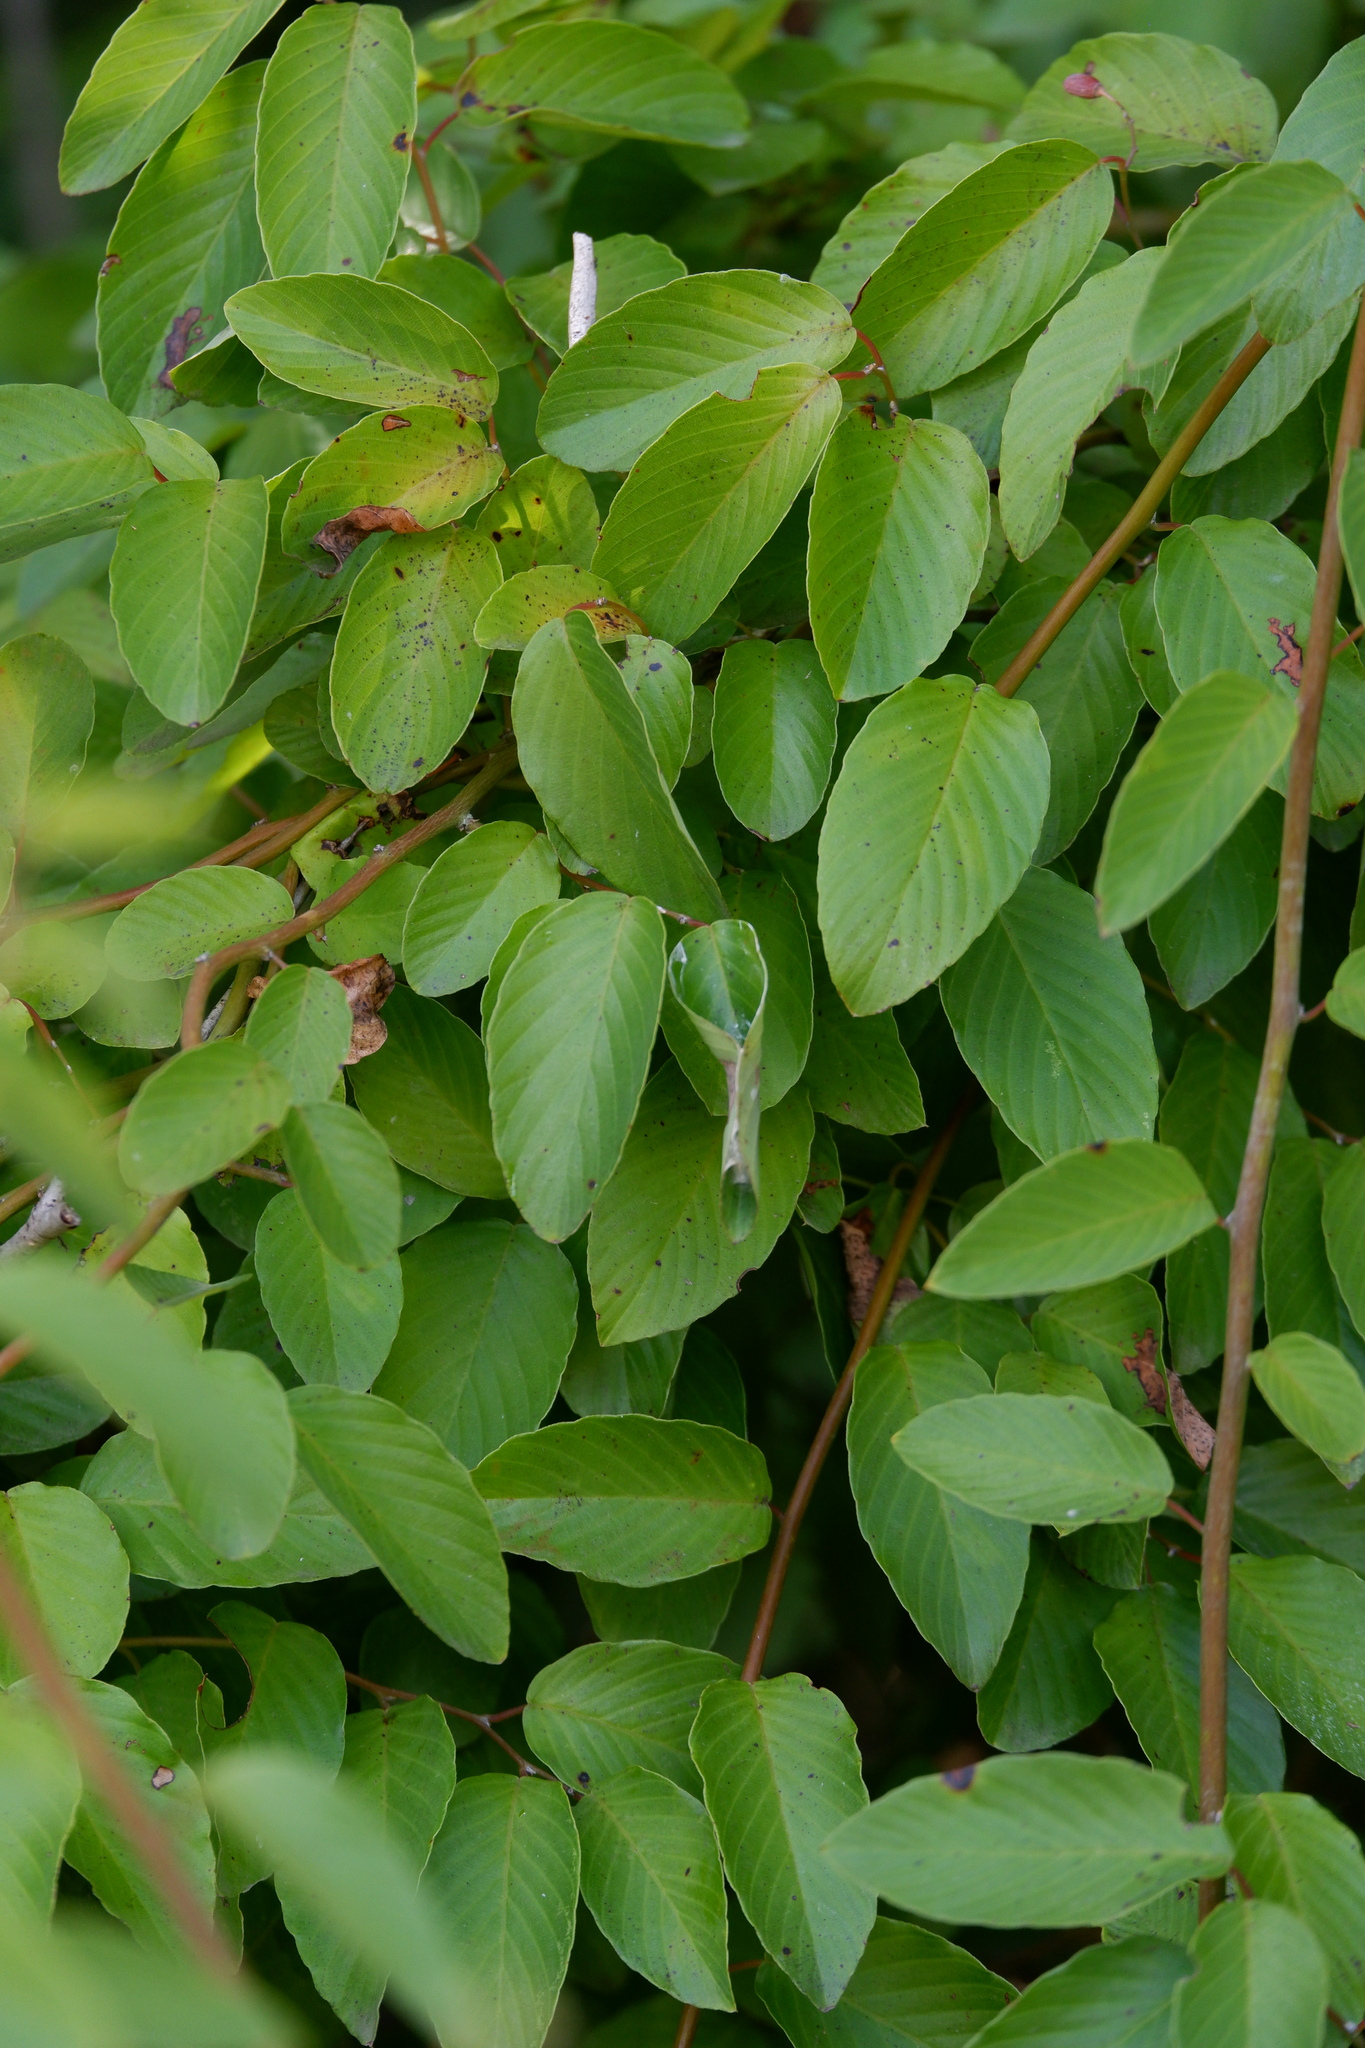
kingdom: Plantae
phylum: Tracheophyta
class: Magnoliopsida
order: Rosales
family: Rhamnaceae
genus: Berchemia
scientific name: Berchemia scandens
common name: Supplejack
